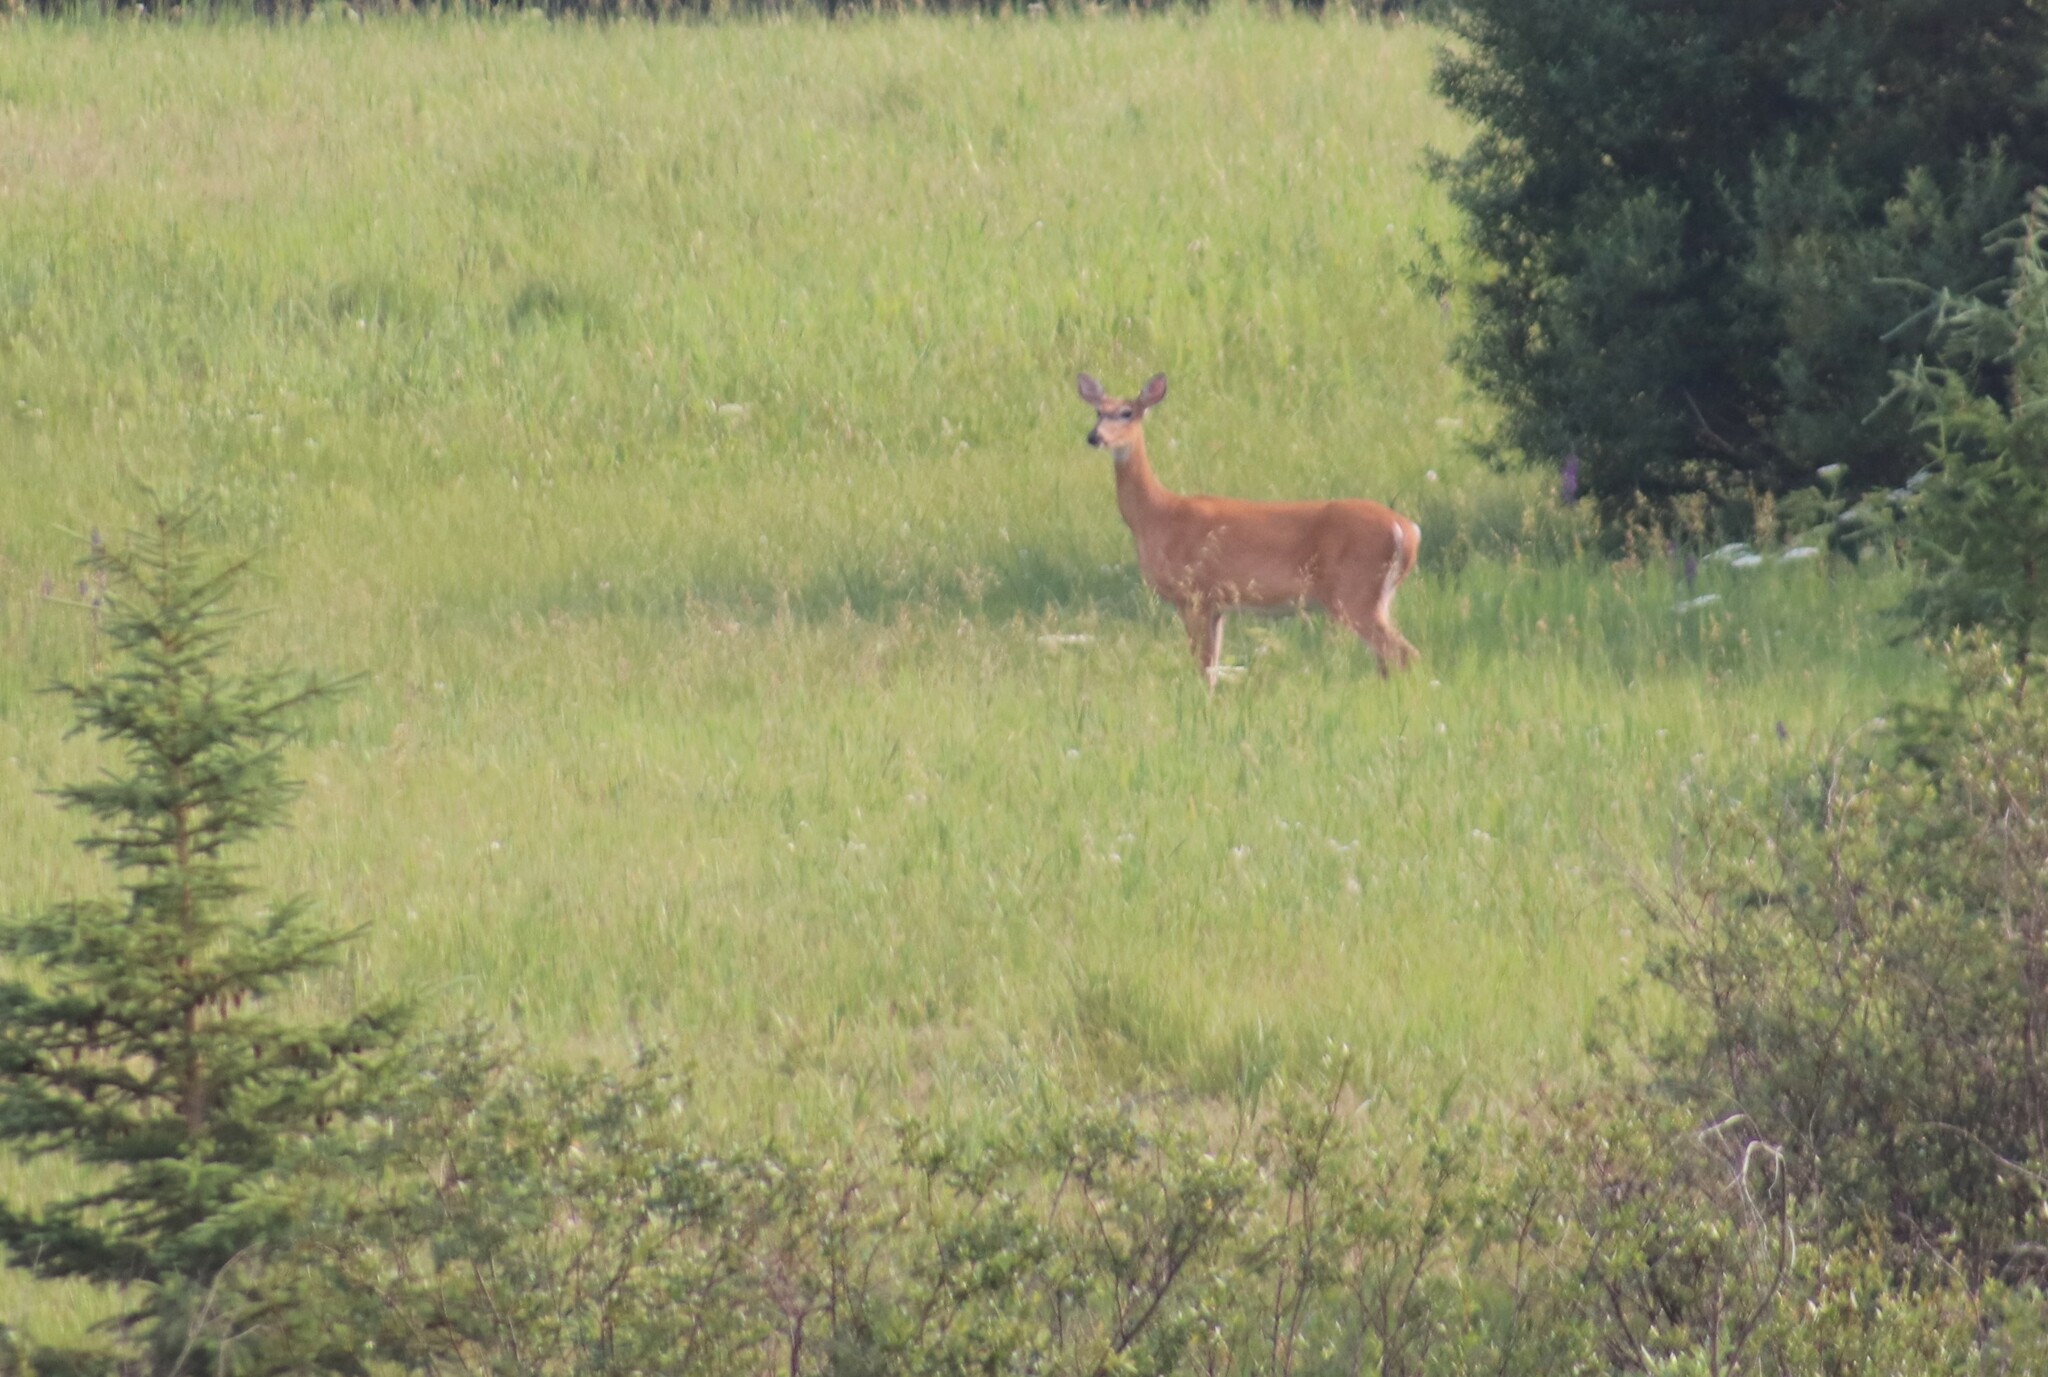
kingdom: Animalia
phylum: Chordata
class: Mammalia
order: Artiodactyla
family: Cervidae
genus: Odocoileus
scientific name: Odocoileus virginianus
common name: White-tailed deer
